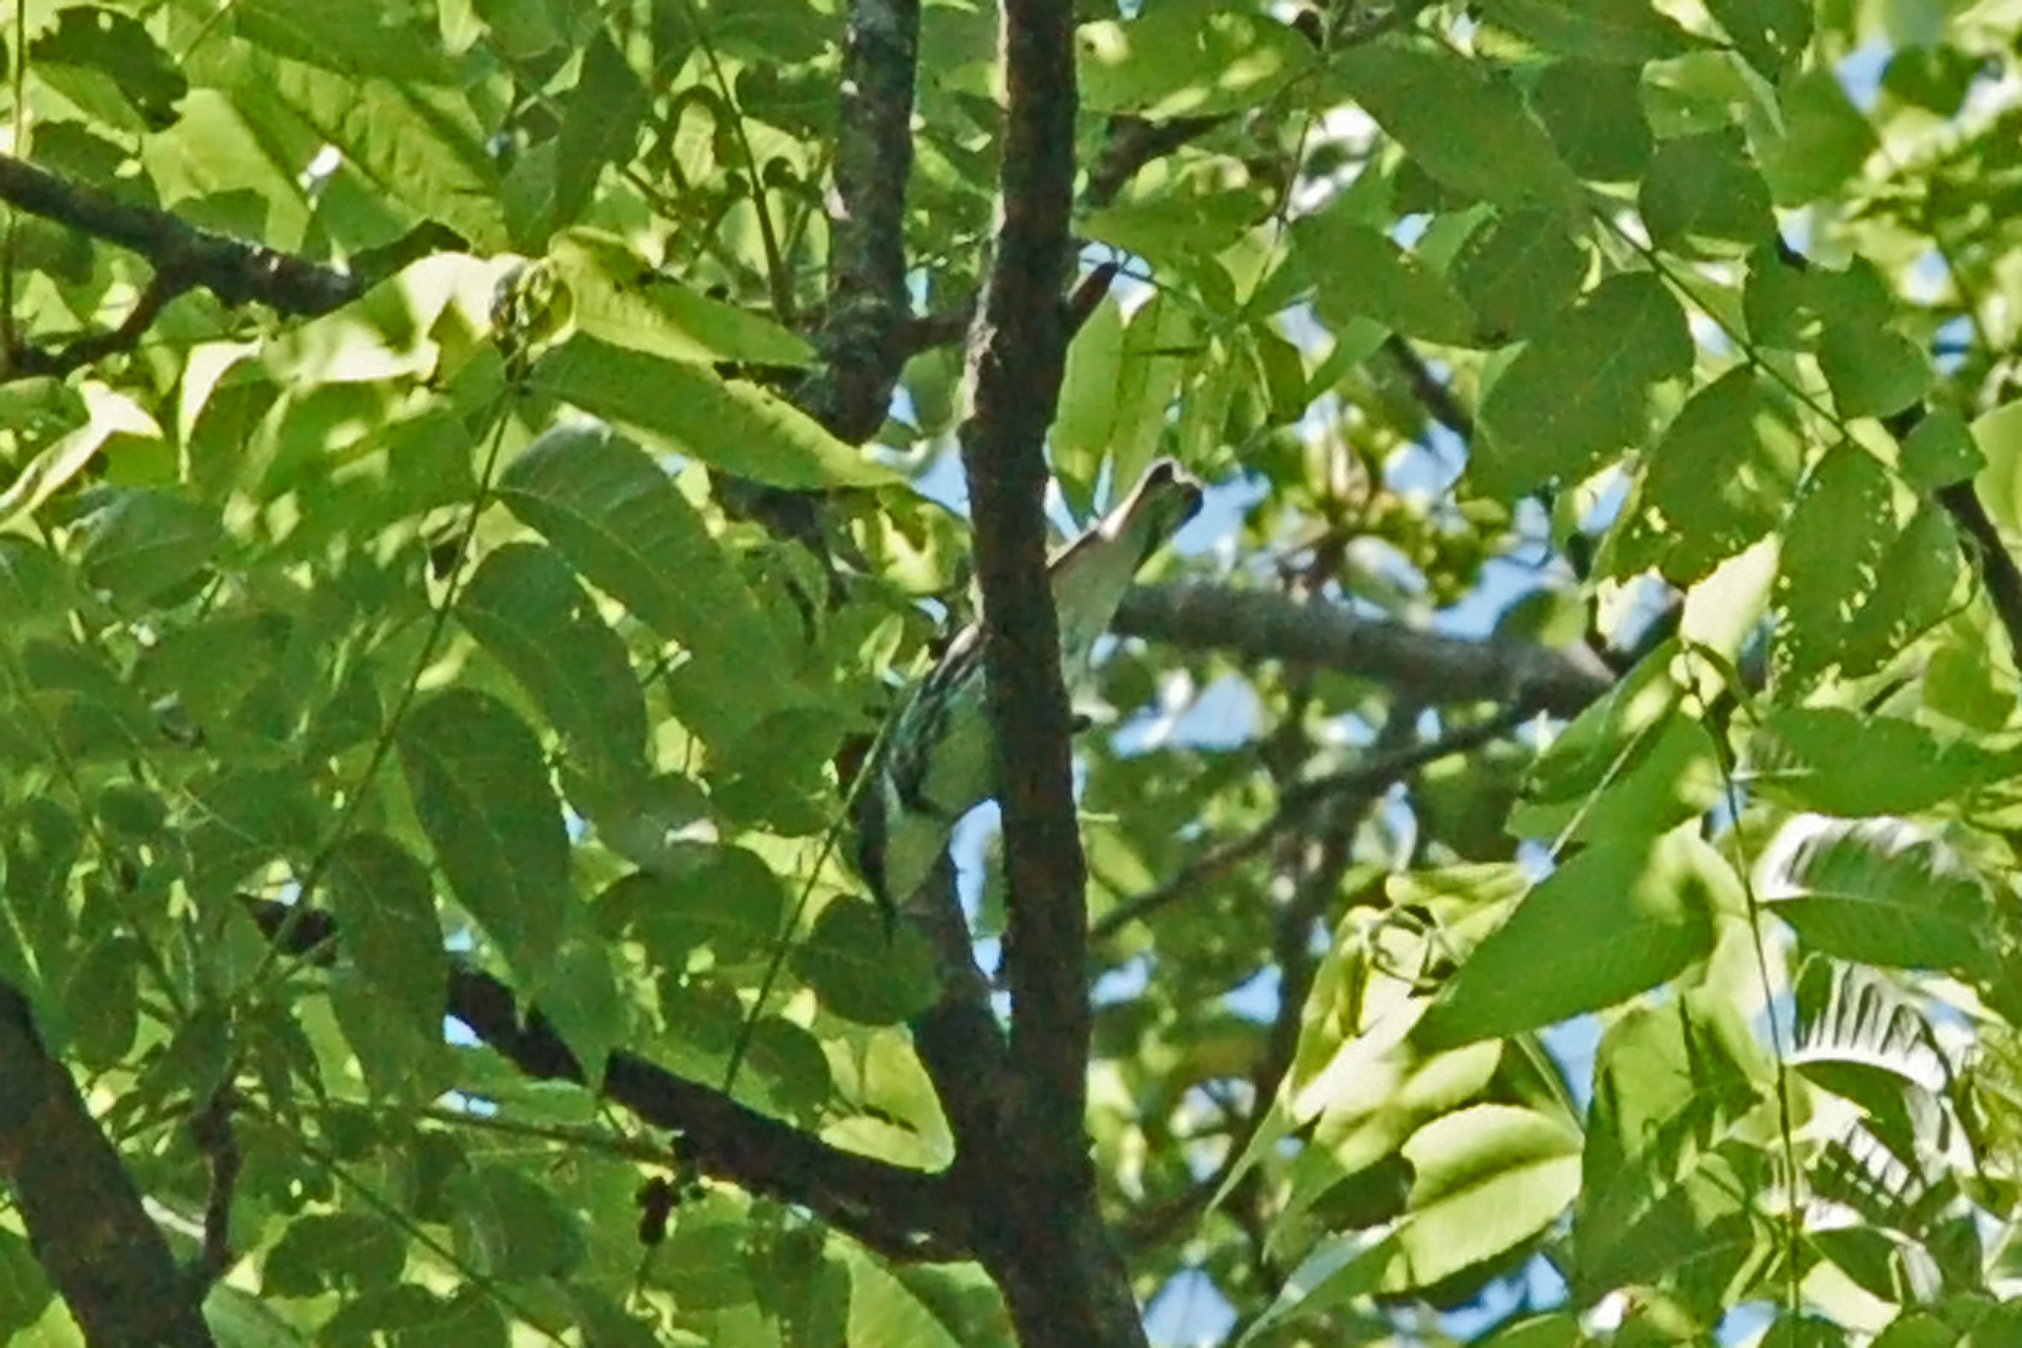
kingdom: Animalia
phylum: Chordata
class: Aves
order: Passeriformes
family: Parulidae
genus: Setophaga
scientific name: Setophaga cerulea
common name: Cerulean warbler
